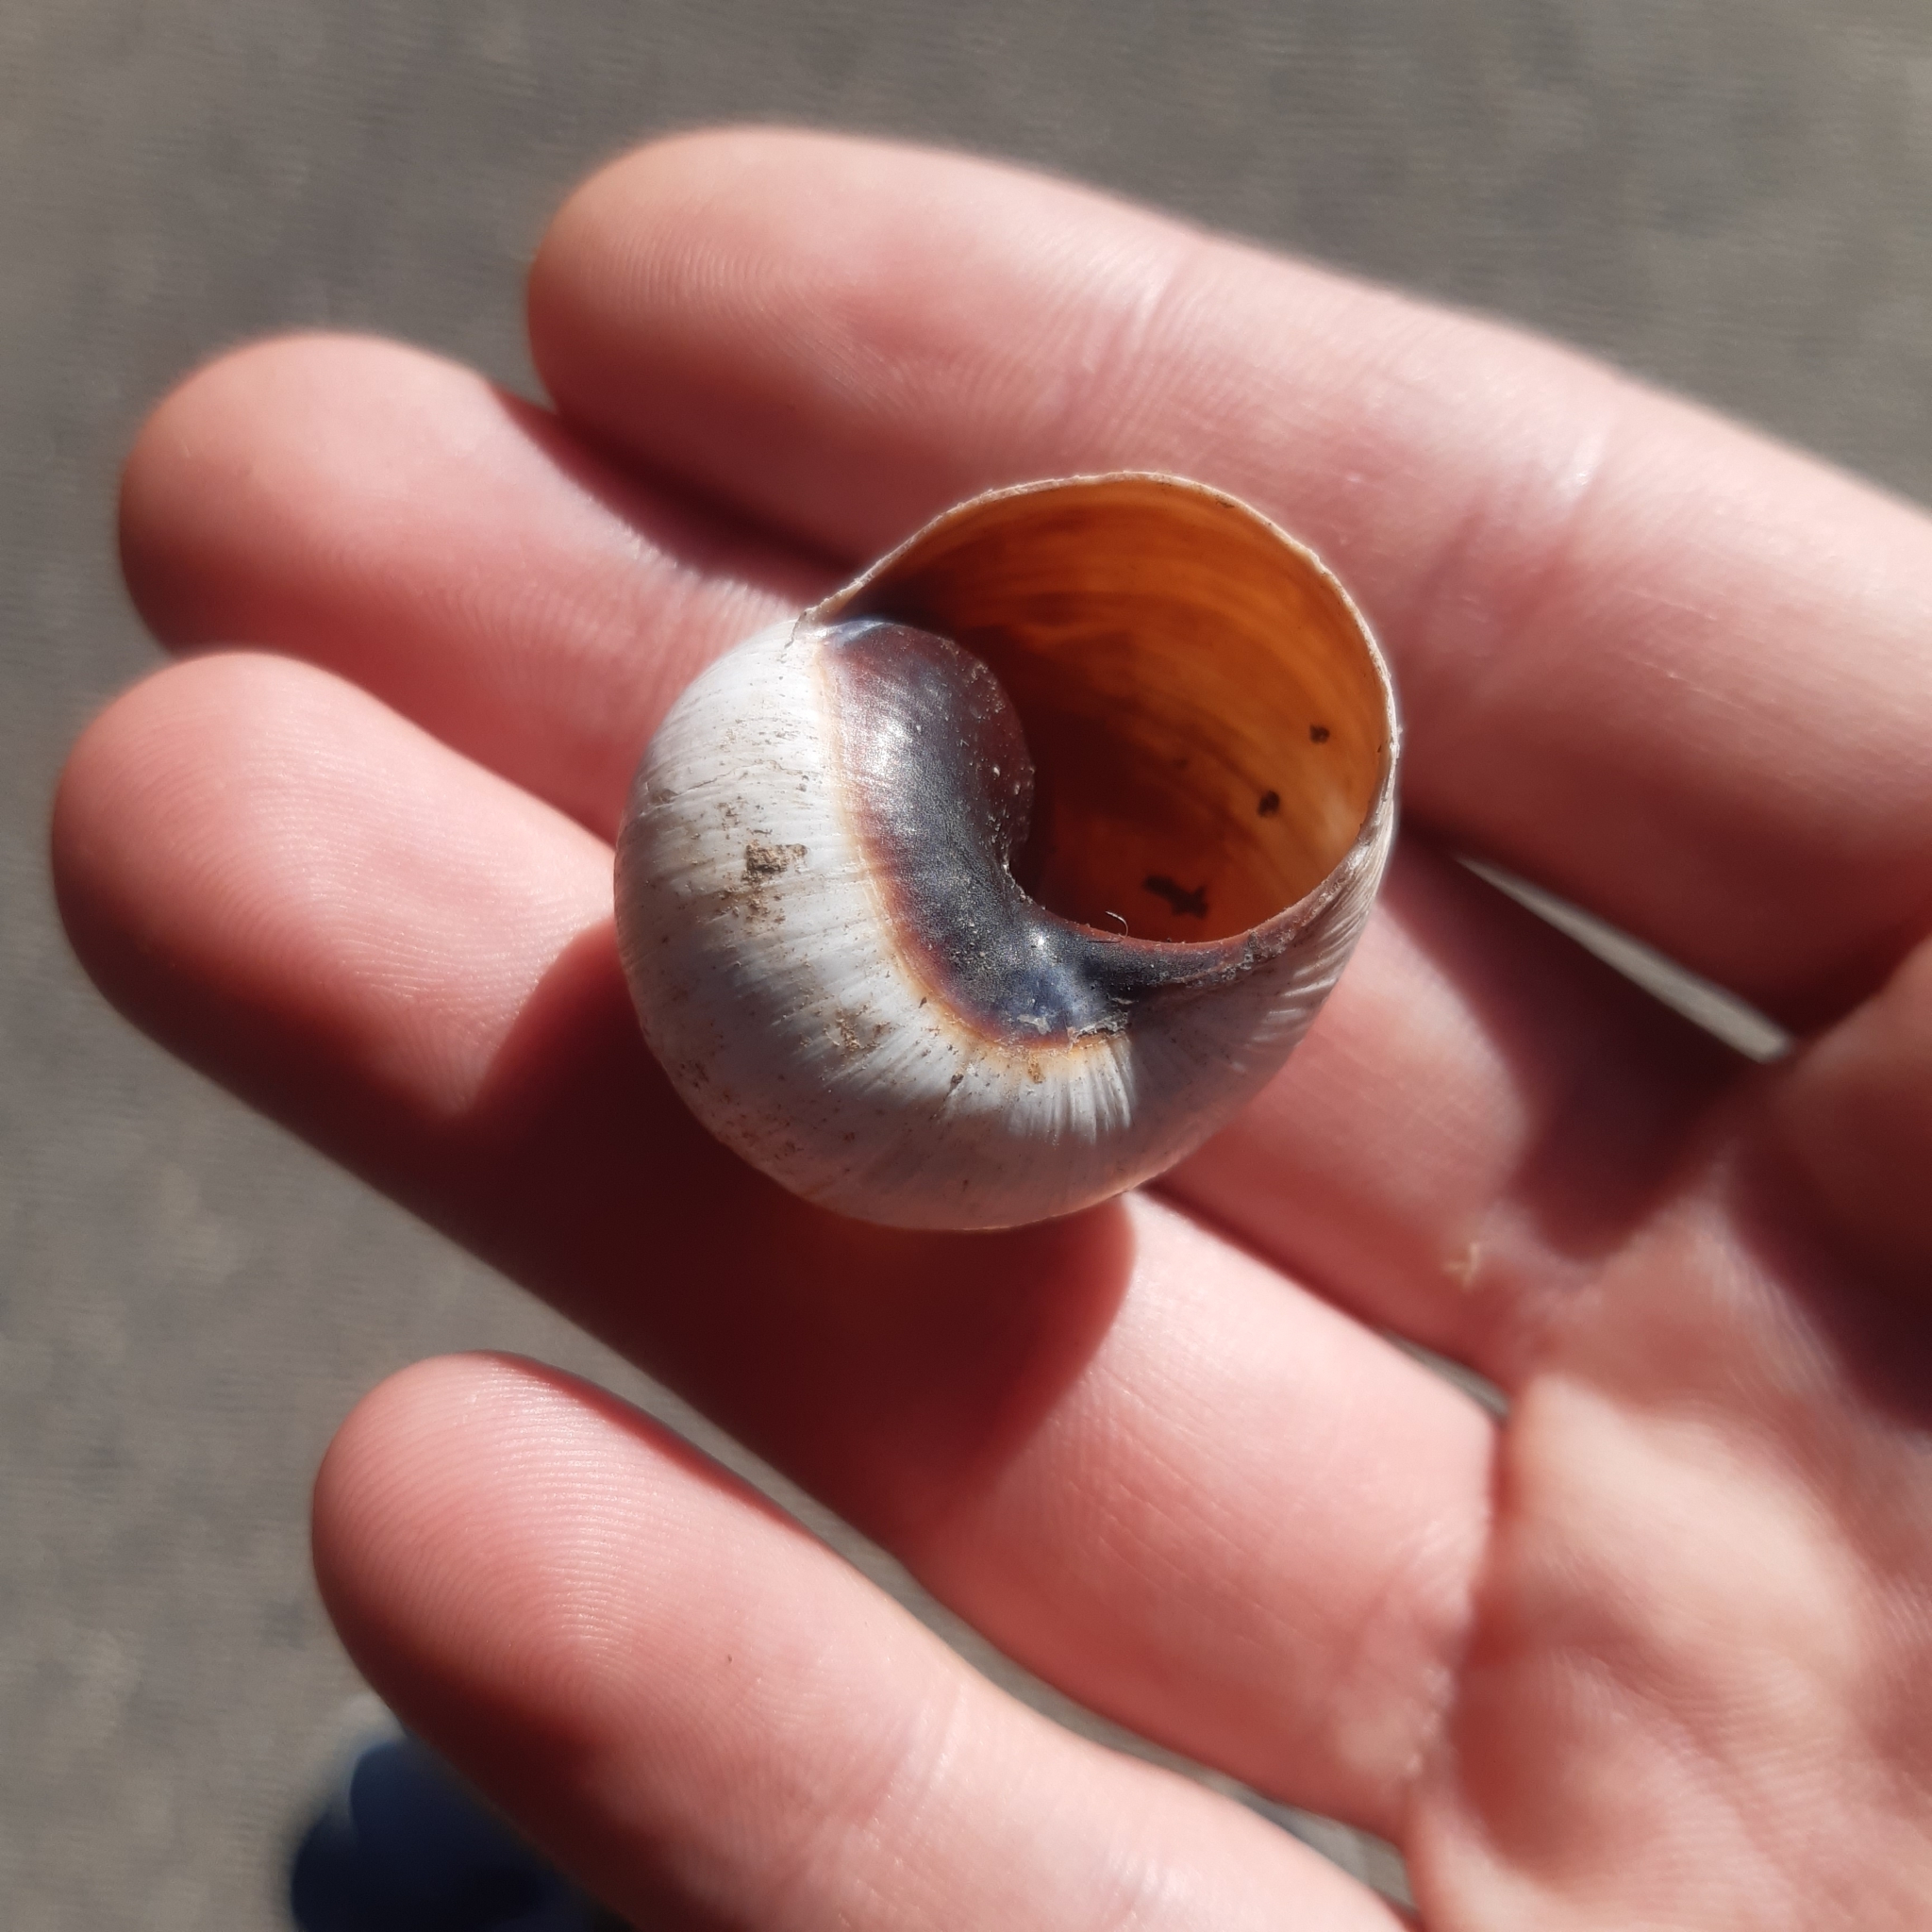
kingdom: Animalia
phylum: Mollusca
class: Gastropoda
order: Stylommatophora
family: Helicidae
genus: Helix
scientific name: Helix melanostoma
